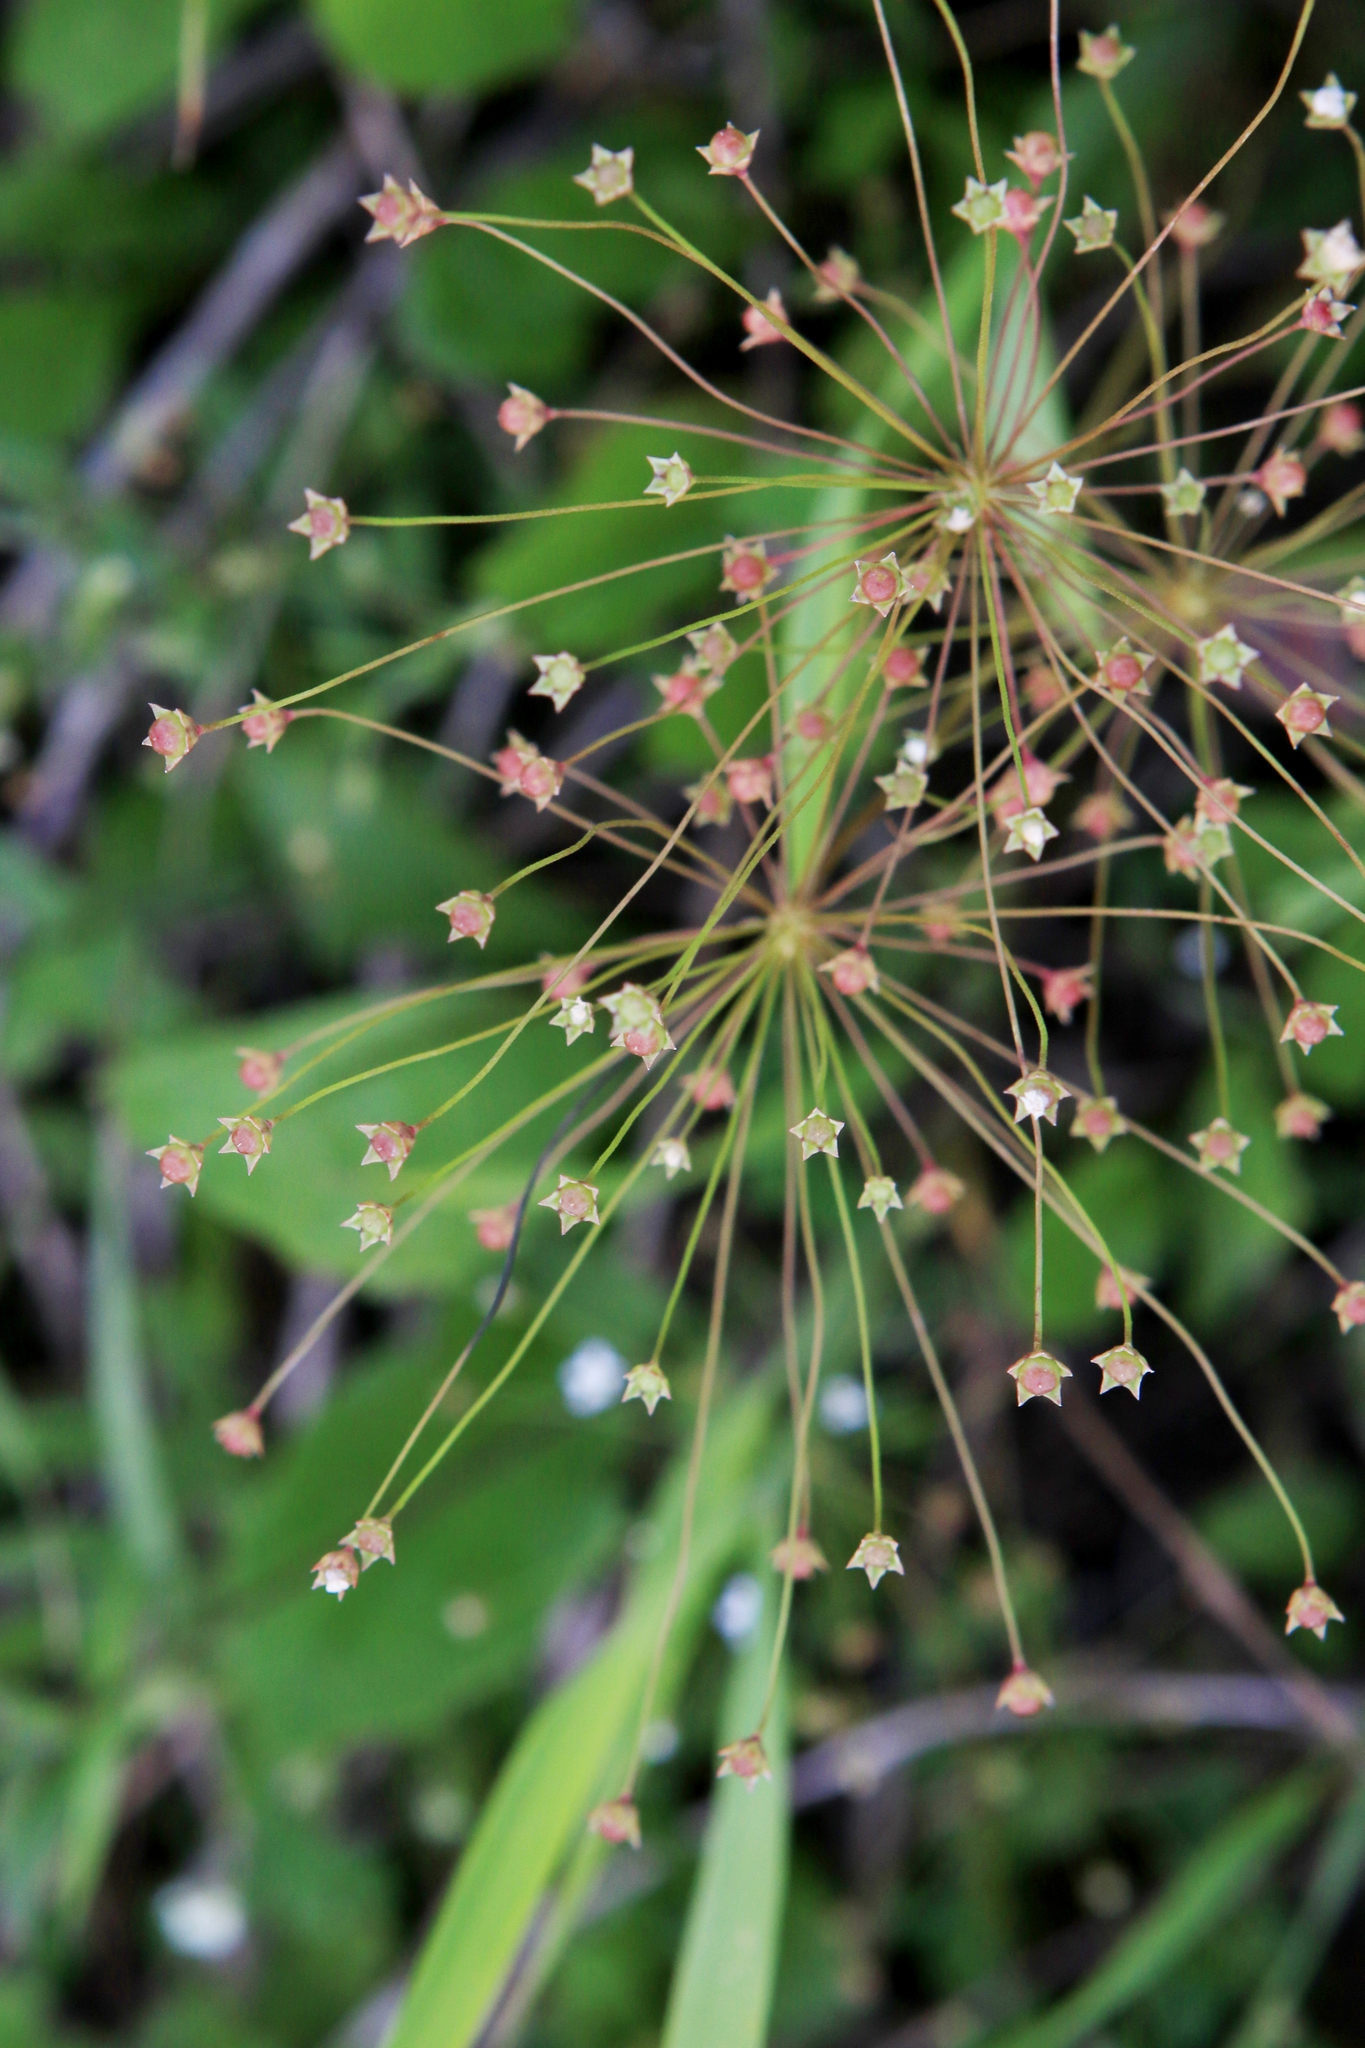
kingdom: Plantae
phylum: Tracheophyta
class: Magnoliopsida
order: Ericales
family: Primulaceae
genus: Androsace
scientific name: Androsace septentrionalis
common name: Hairy northern fairy-candelabra
